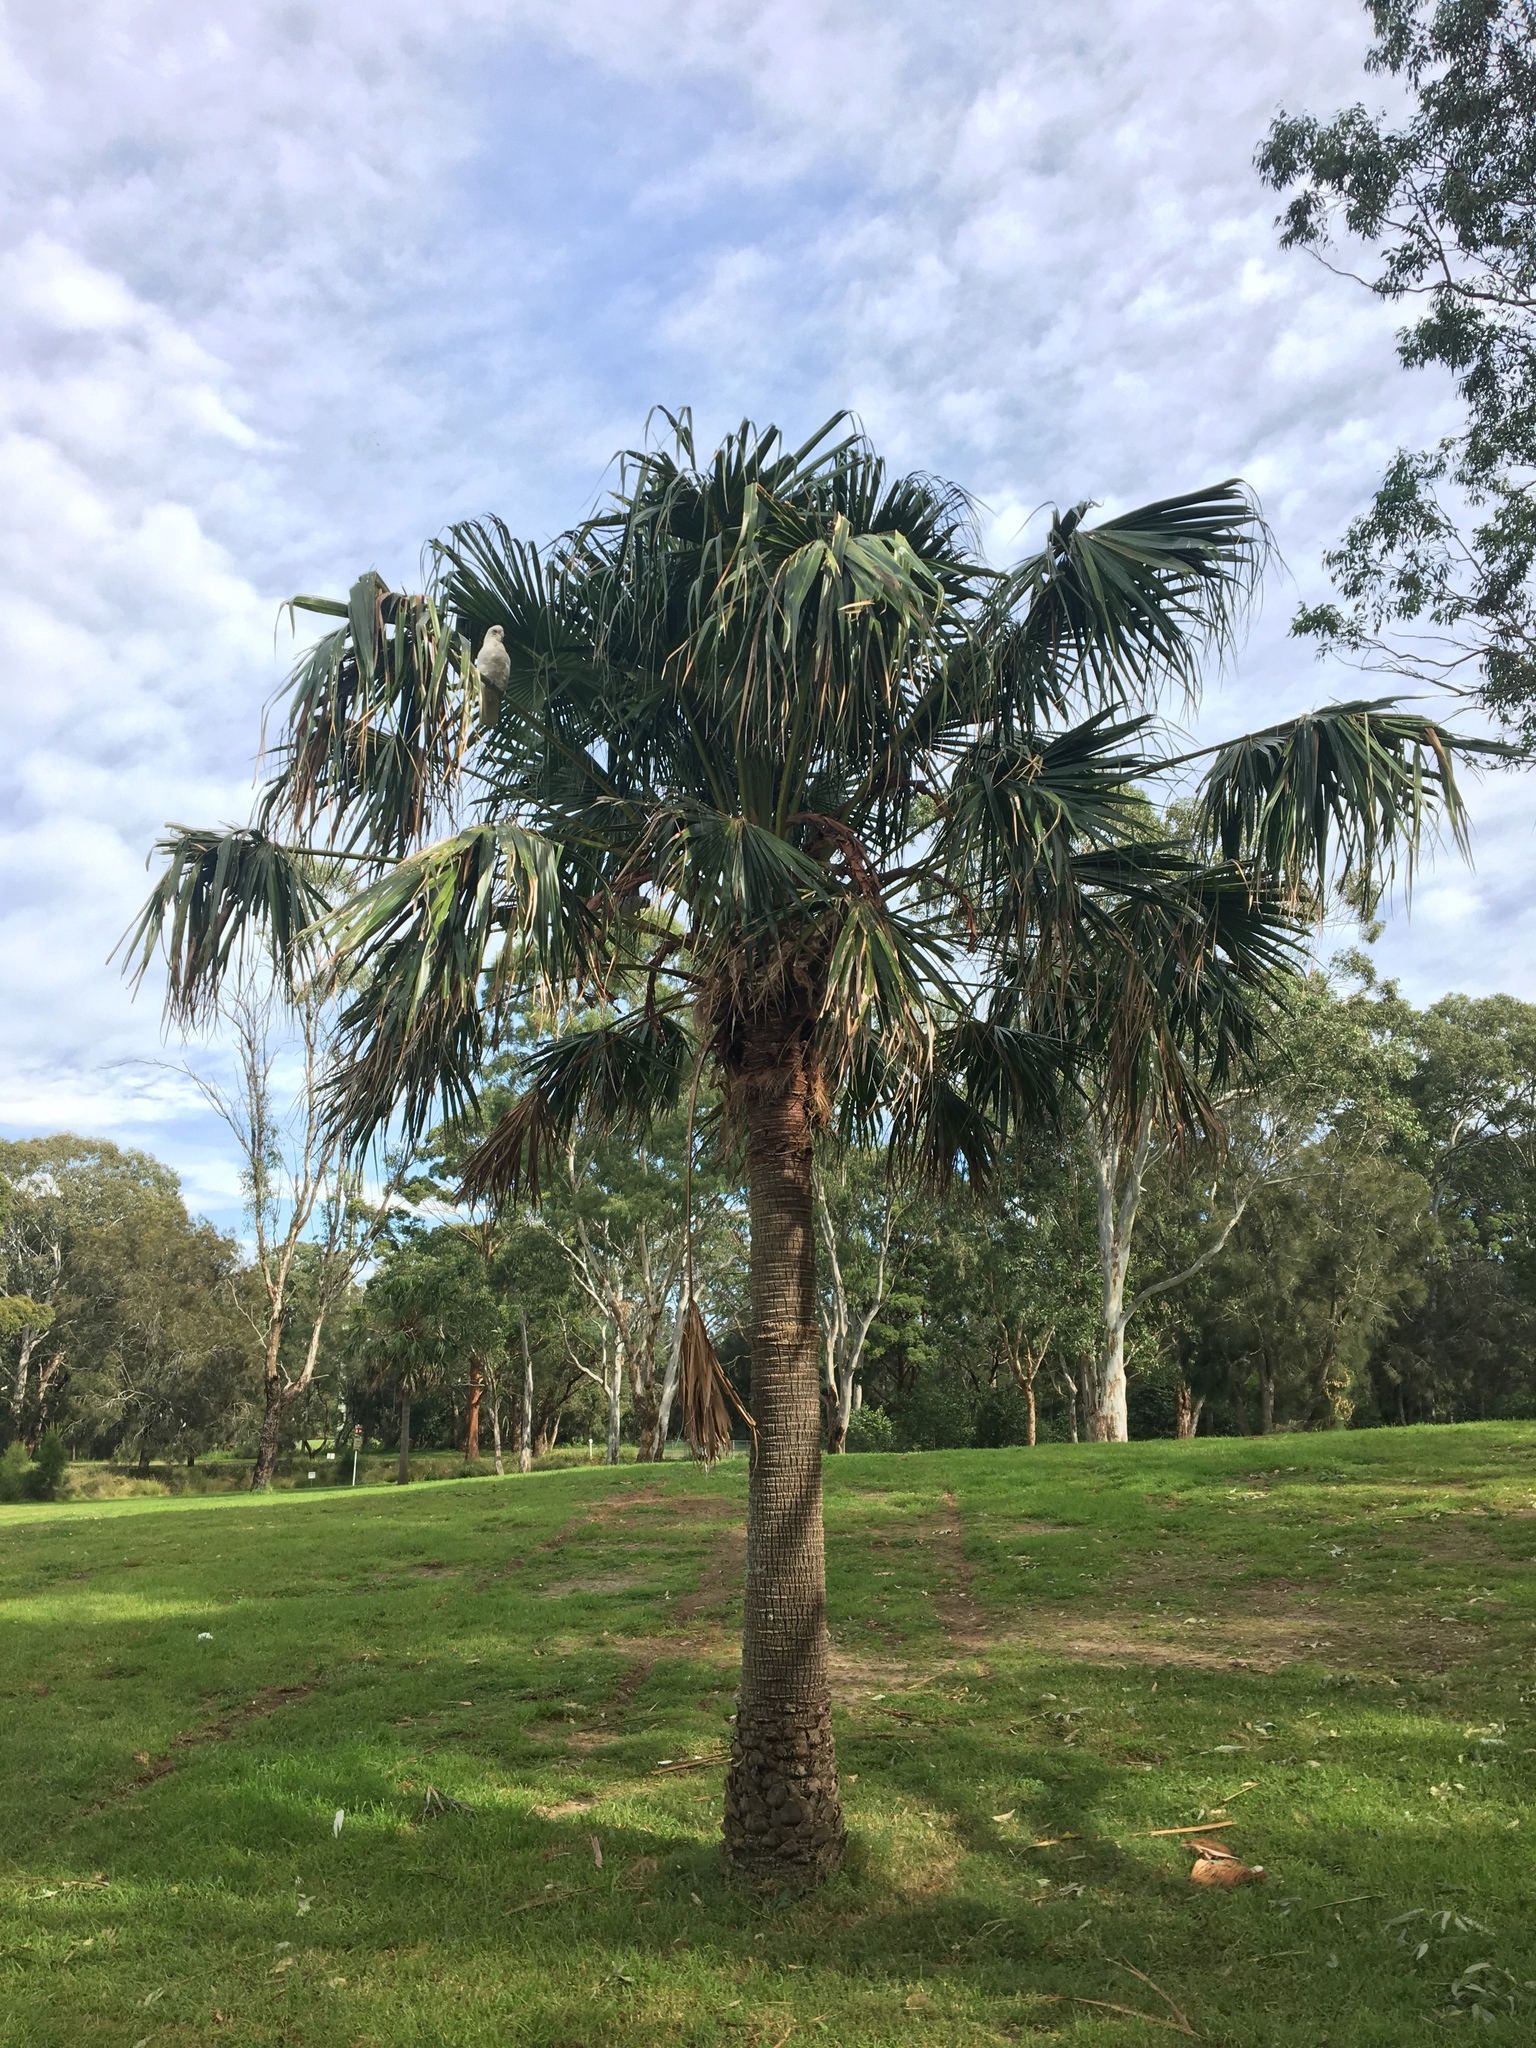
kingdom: Plantae
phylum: Tracheophyta
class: Liliopsida
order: Arecales
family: Arecaceae
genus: Livistona
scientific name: Livistona australis
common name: Cabbage fan palm
